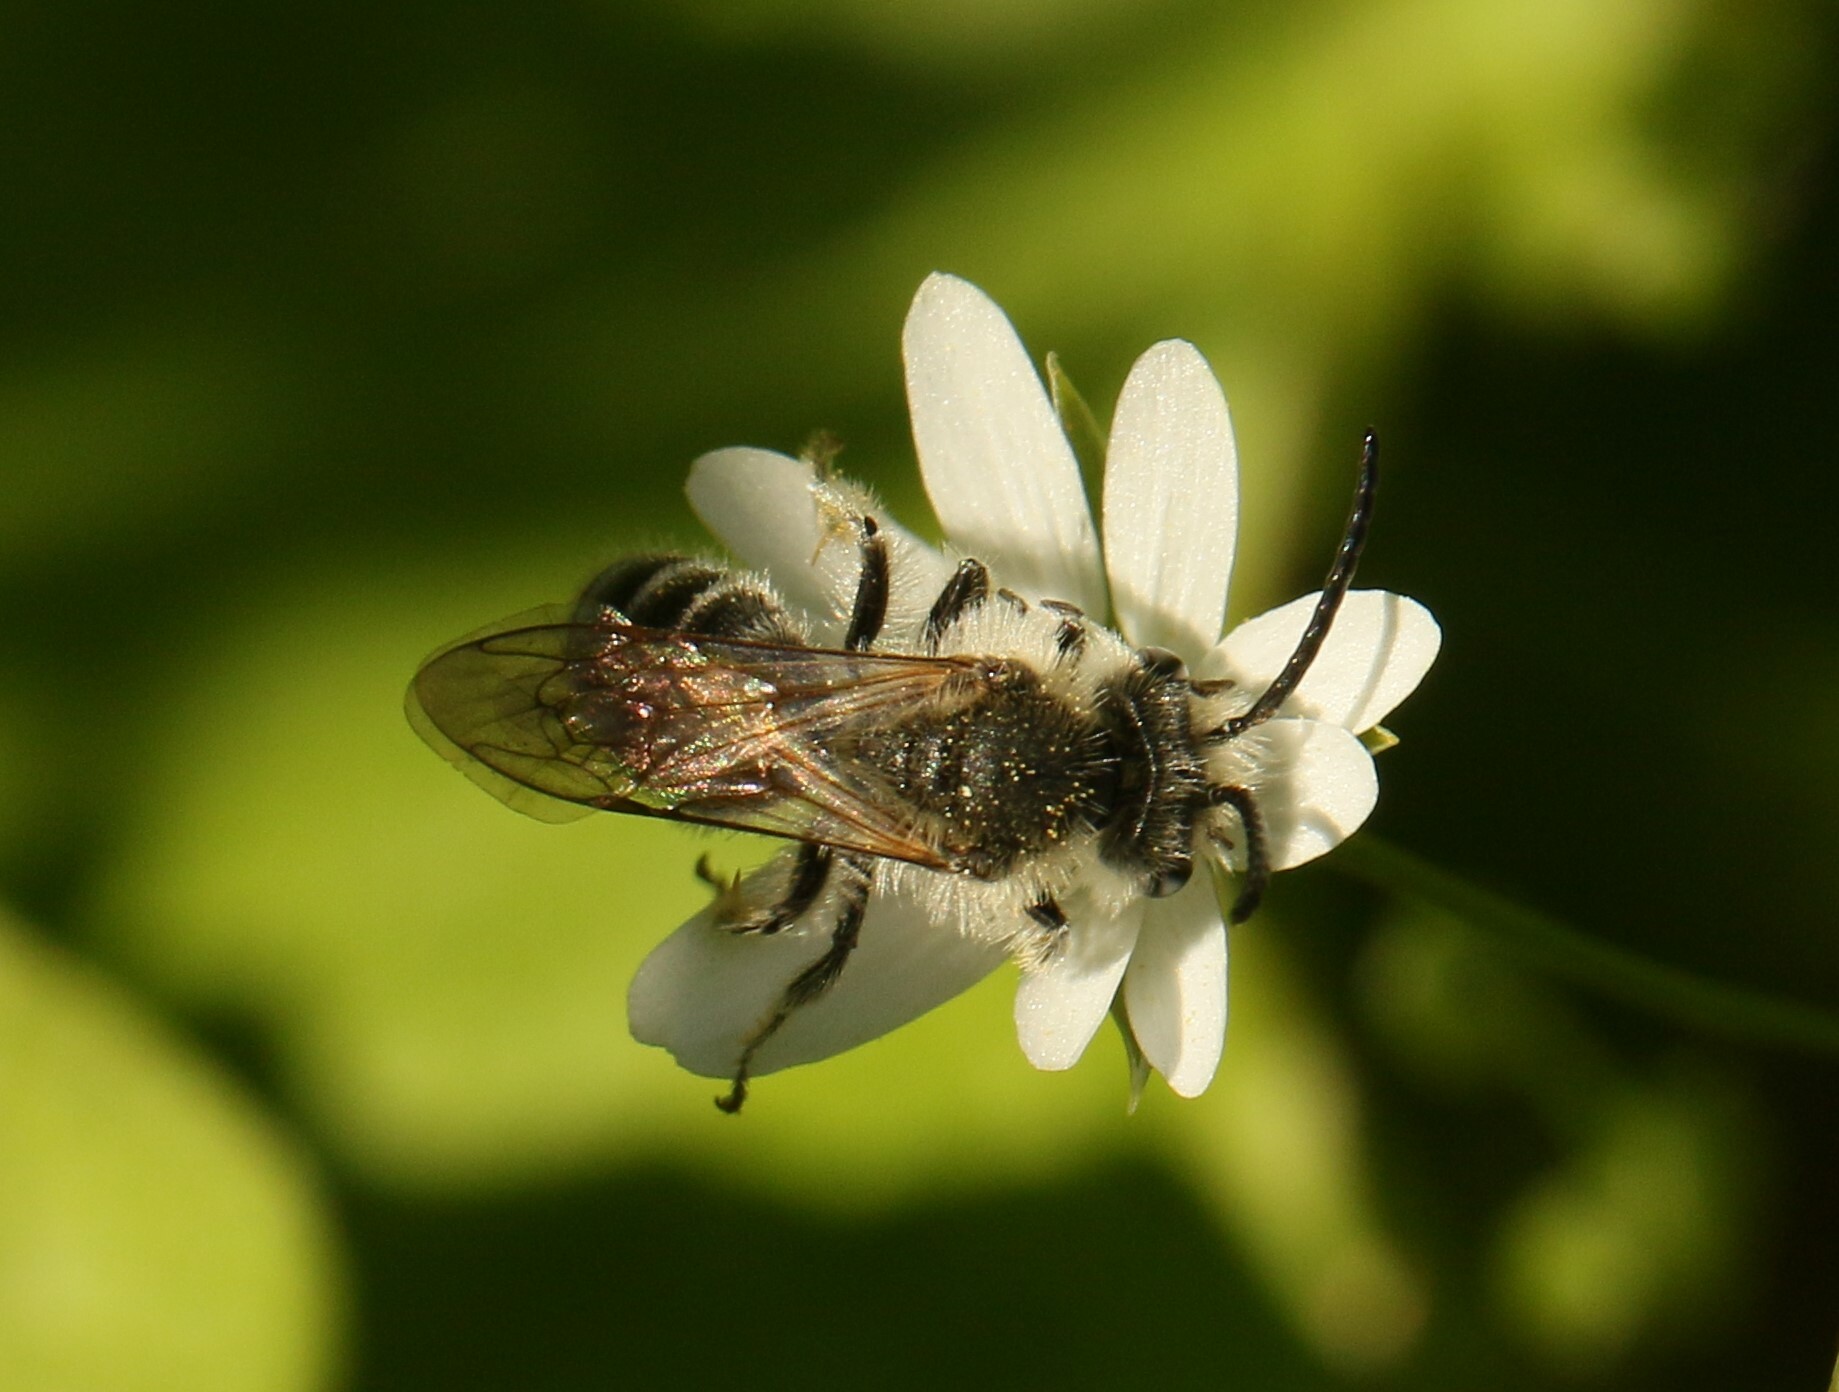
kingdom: Animalia
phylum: Arthropoda
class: Insecta
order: Hymenoptera
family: Andrenidae
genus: Andrena
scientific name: Andrena
